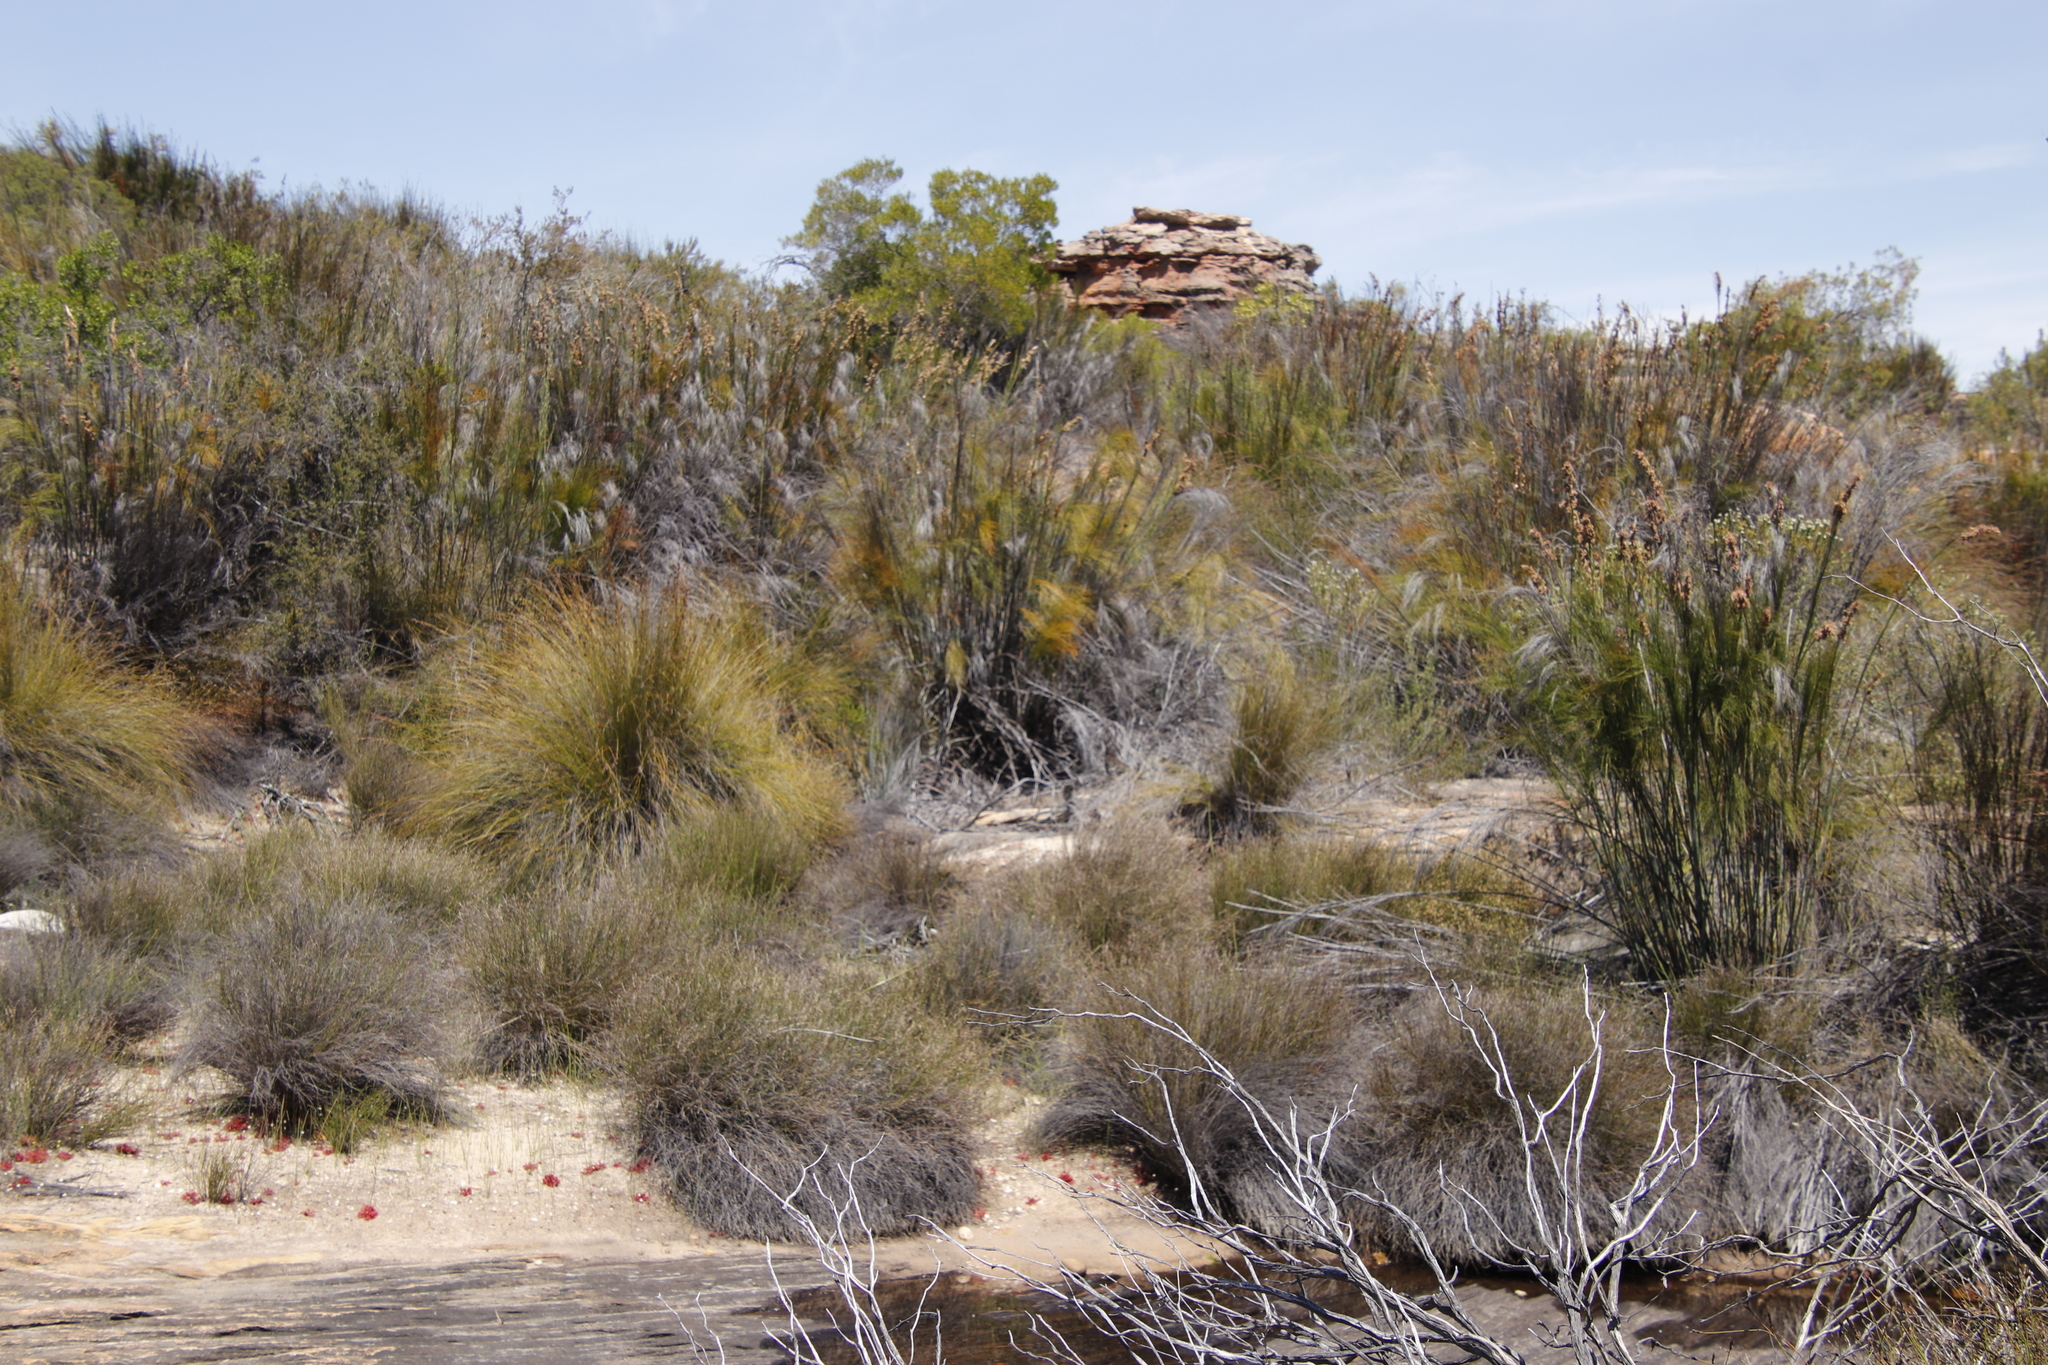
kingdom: Plantae
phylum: Tracheophyta
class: Liliopsida
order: Poales
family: Restionaceae
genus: Cannomois
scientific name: Cannomois robusta
